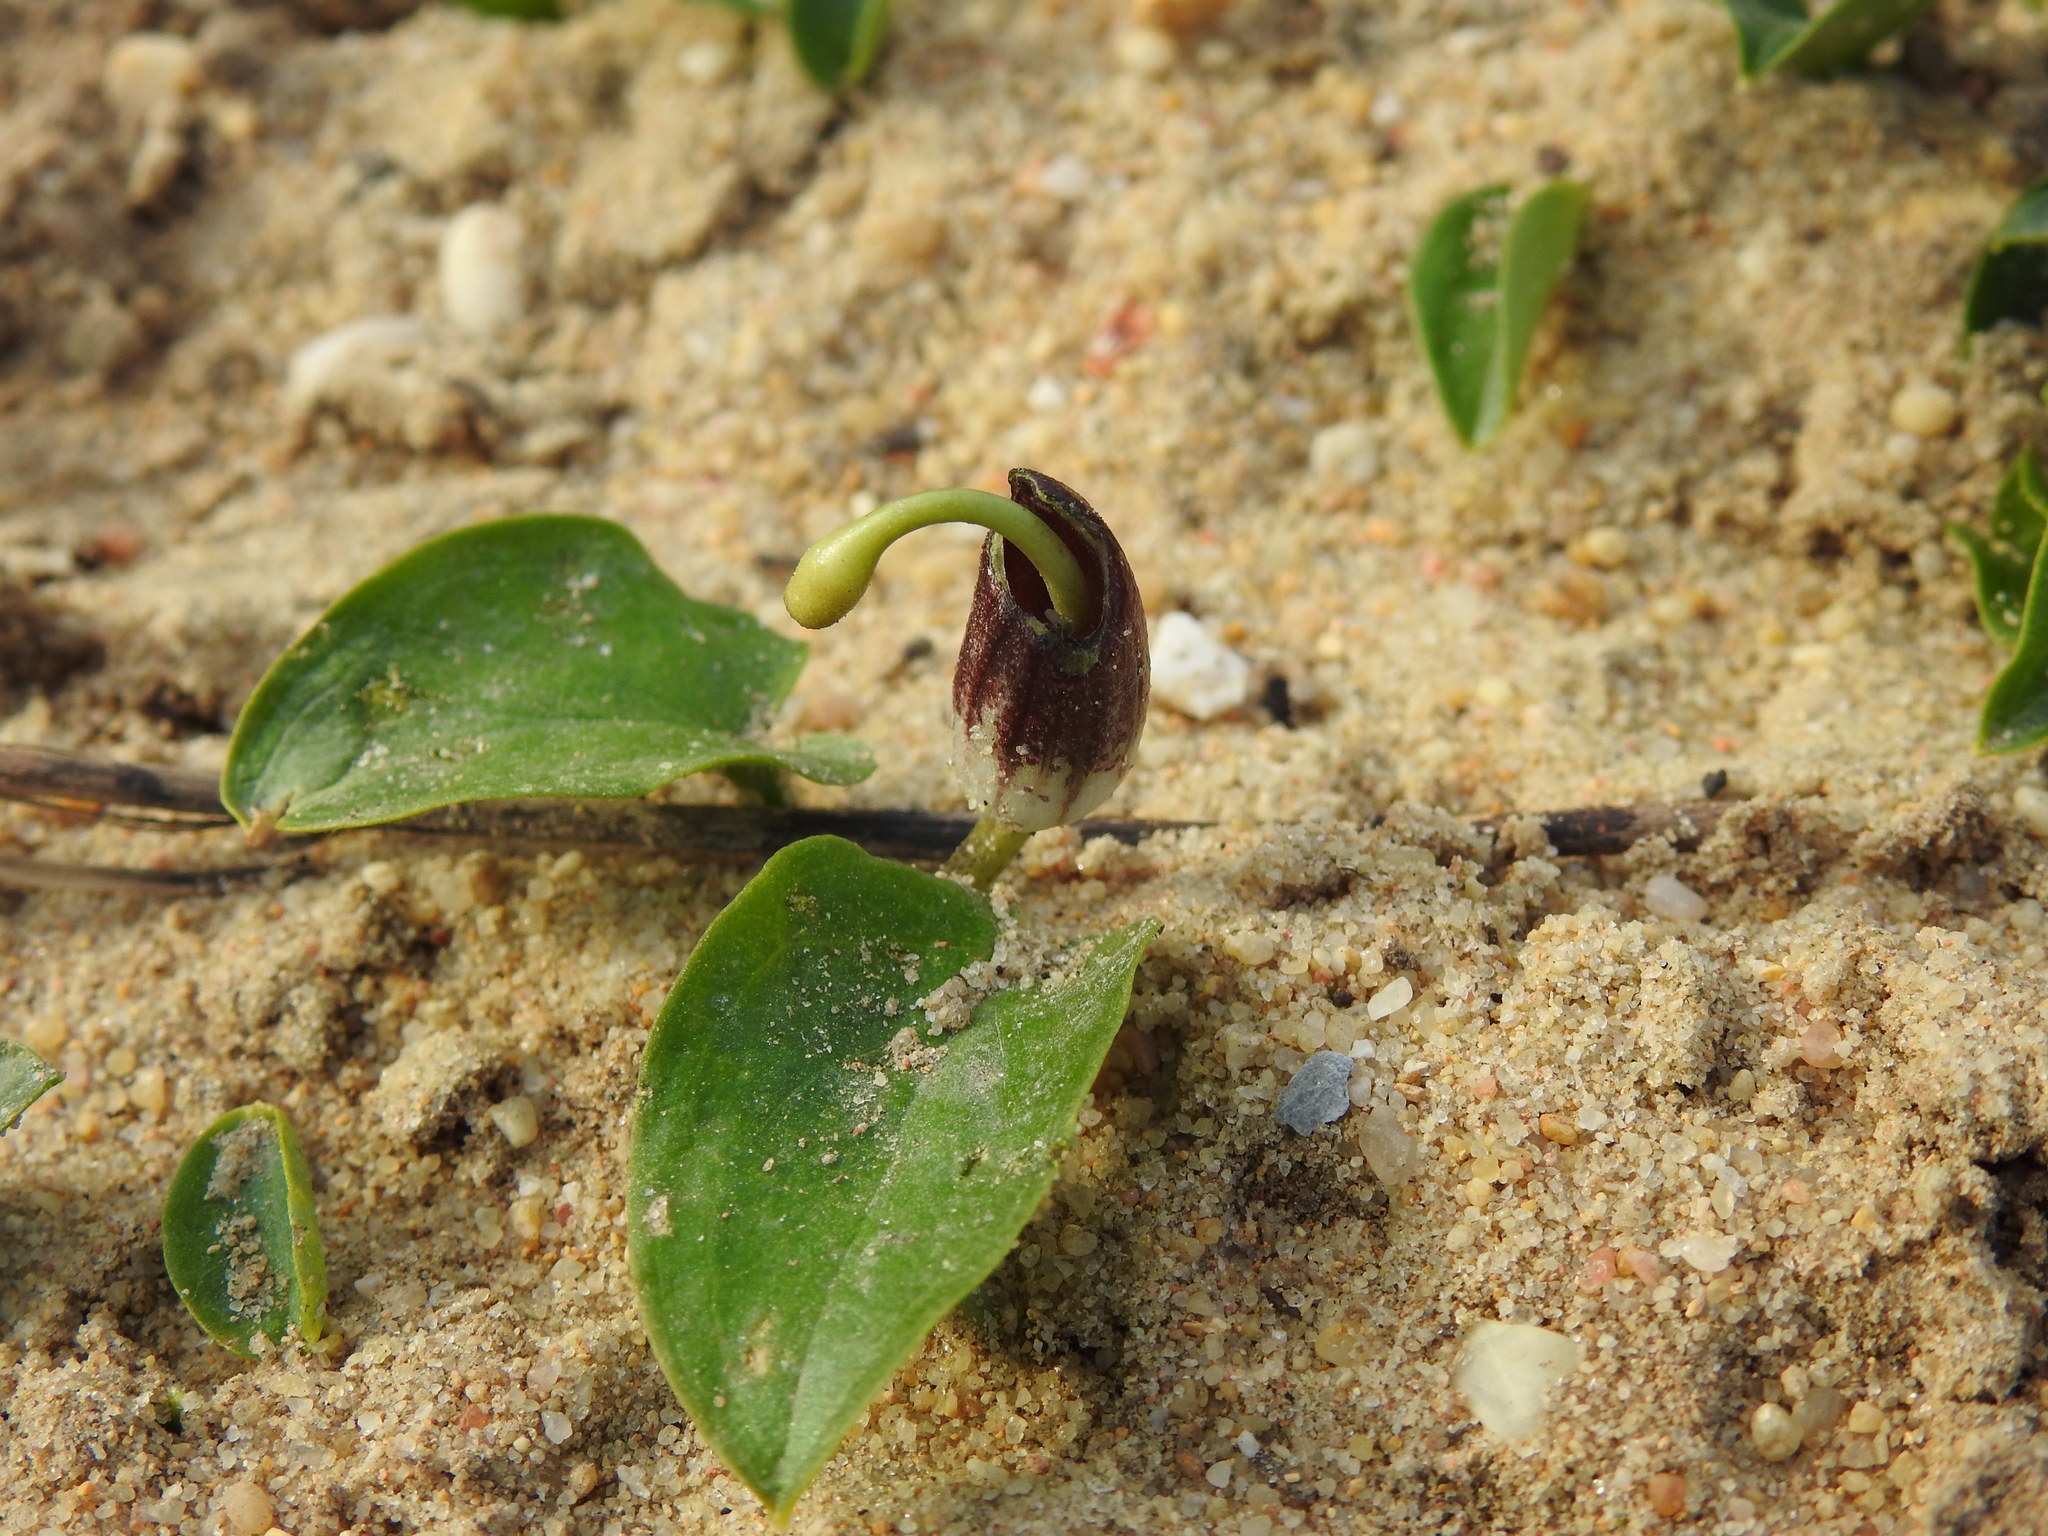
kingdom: Plantae
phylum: Tracheophyta
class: Liliopsida
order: Alismatales
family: Araceae
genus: Arisarum
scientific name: Arisarum simorrhinum
